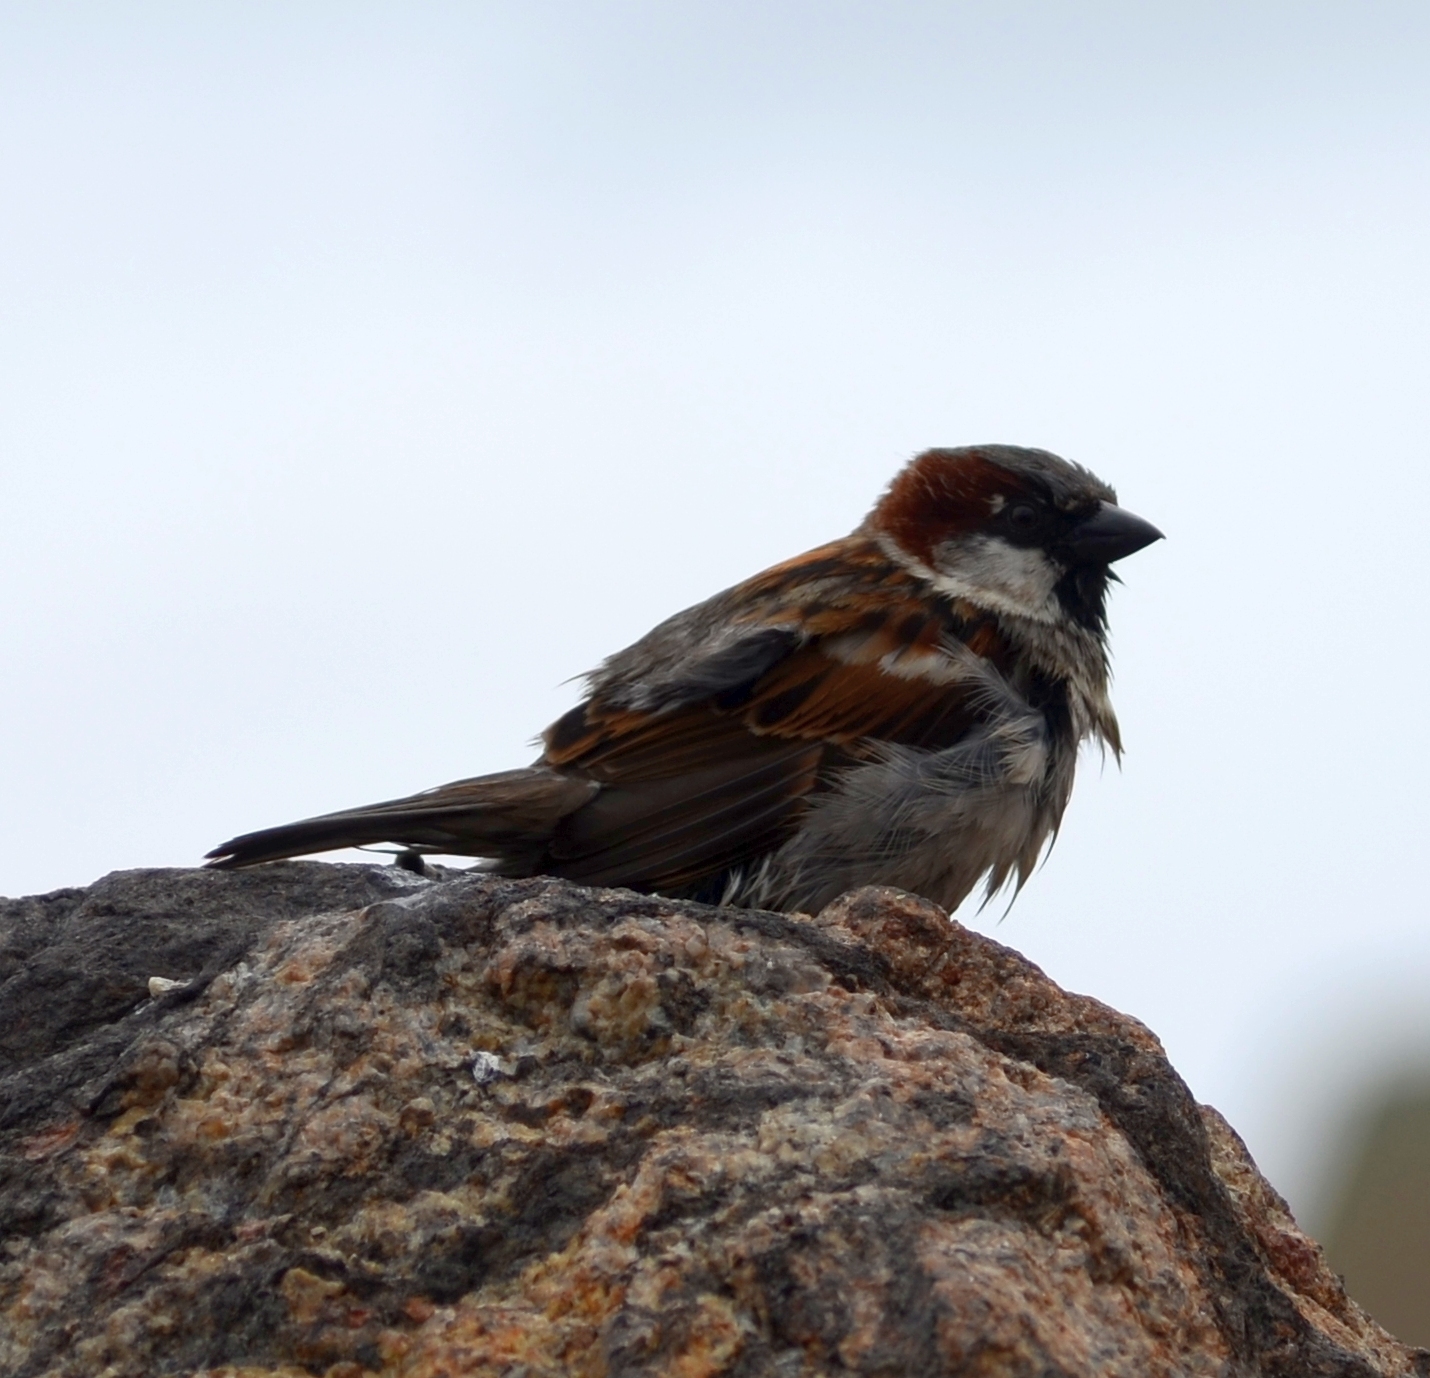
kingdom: Animalia
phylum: Chordata
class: Aves
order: Passeriformes
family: Passeridae
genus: Passer
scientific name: Passer domesticus
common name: House sparrow
